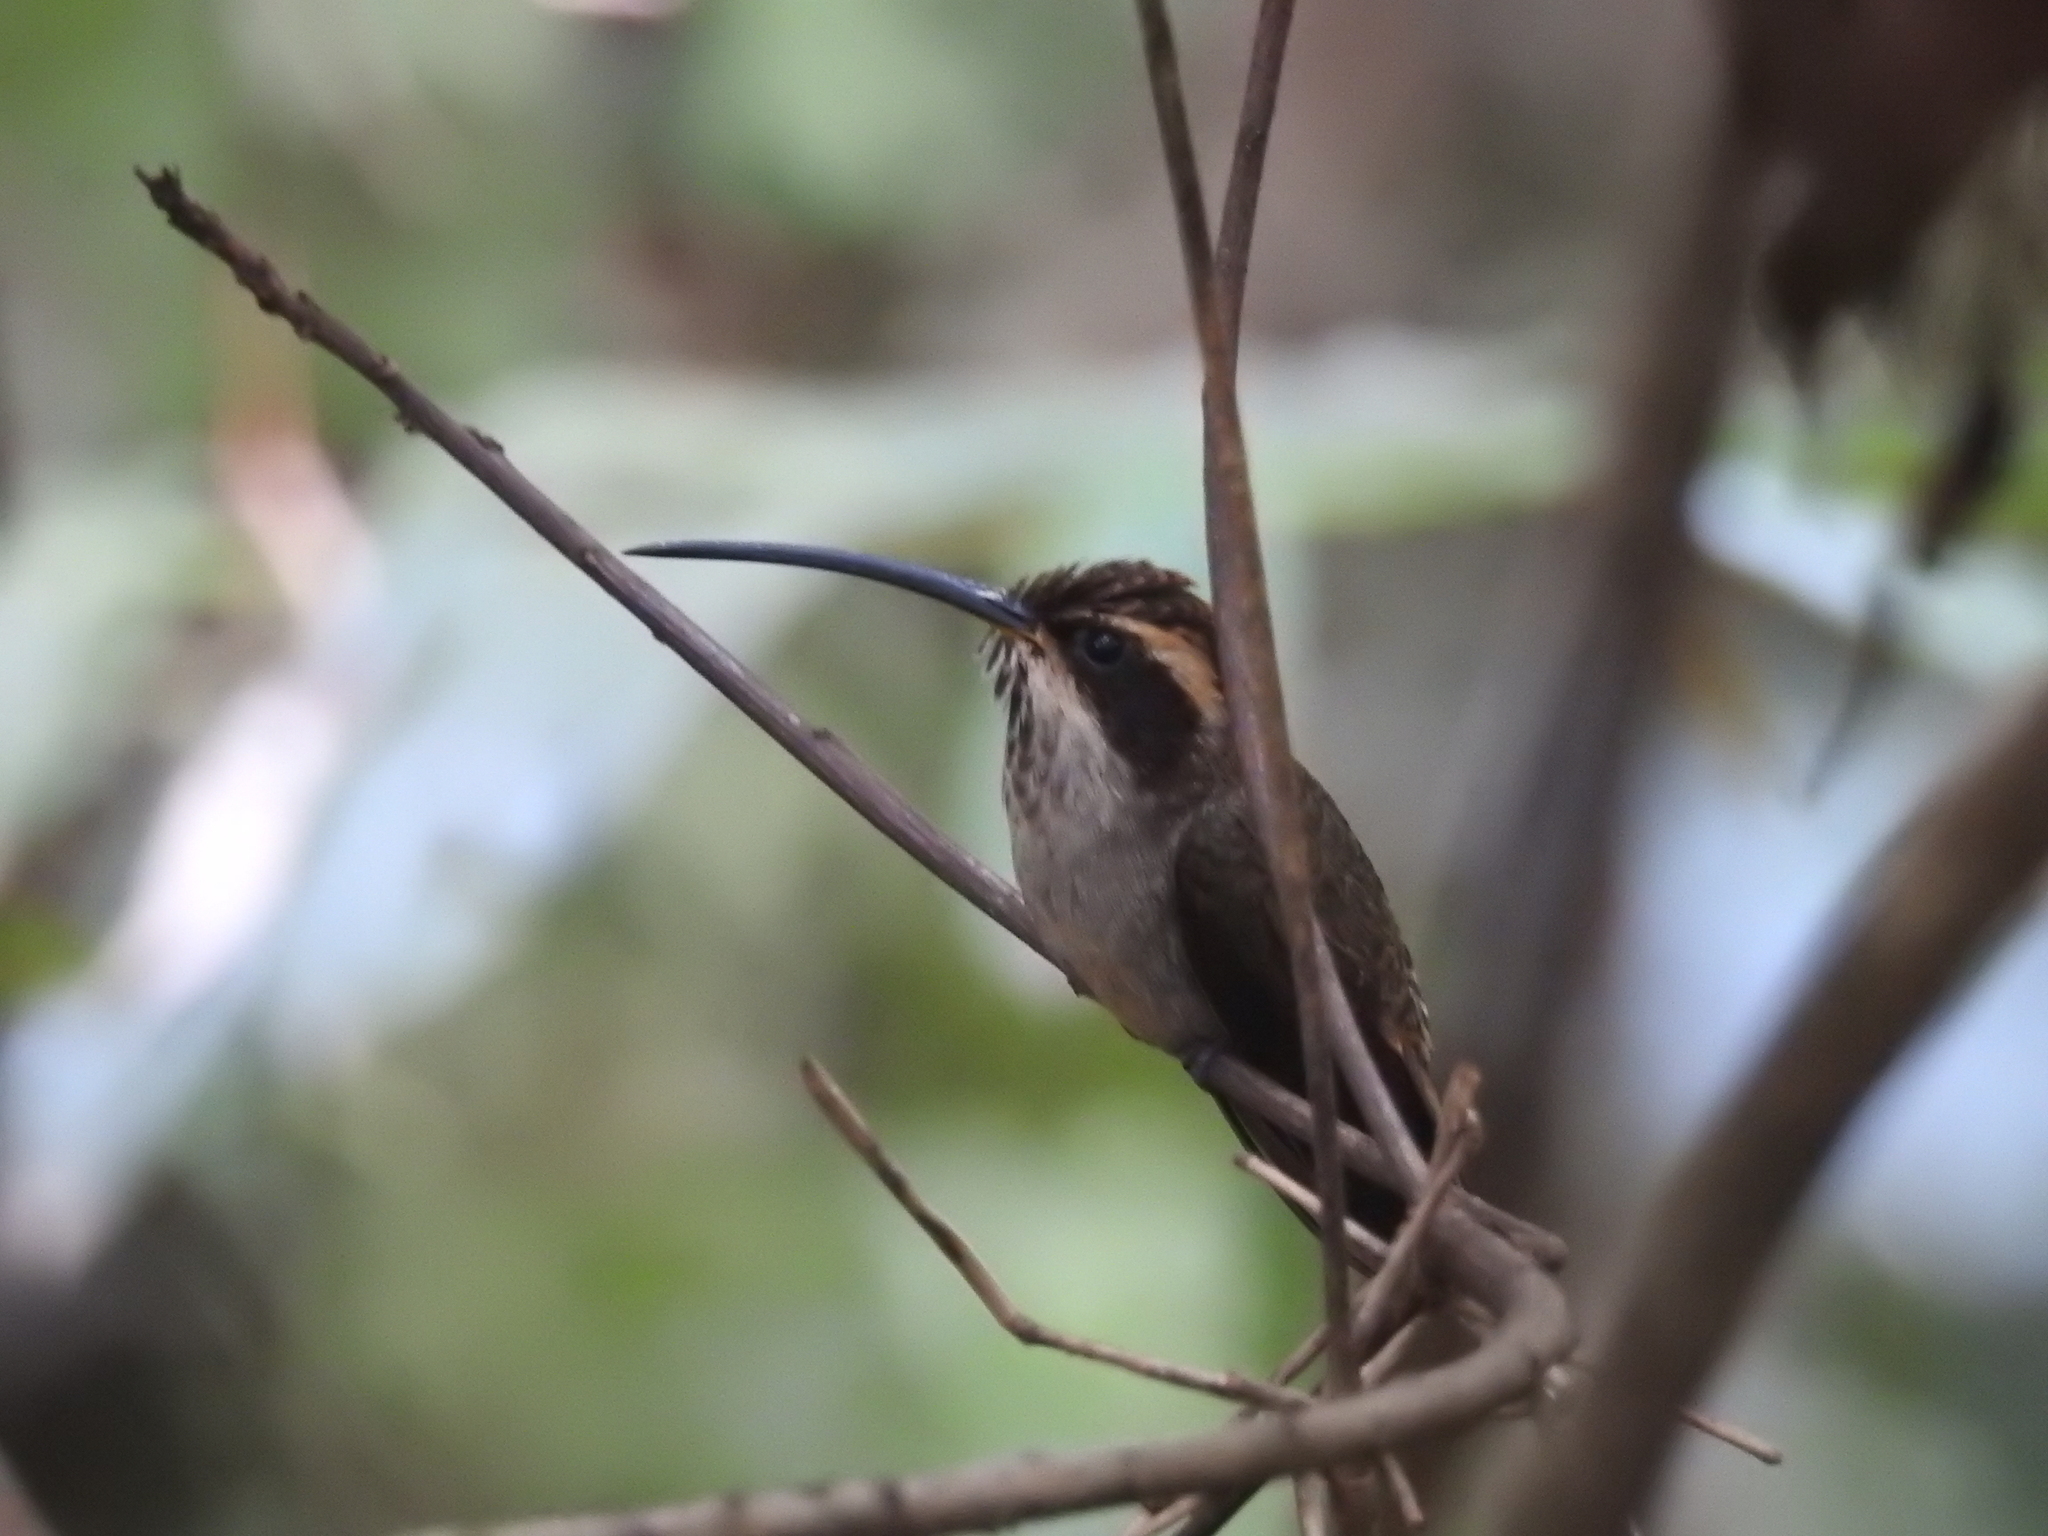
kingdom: Animalia
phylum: Chordata
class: Aves
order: Apodiformes
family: Trochilidae
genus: Phaethornis
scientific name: Phaethornis eurynome
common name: Scale-throated hermit
